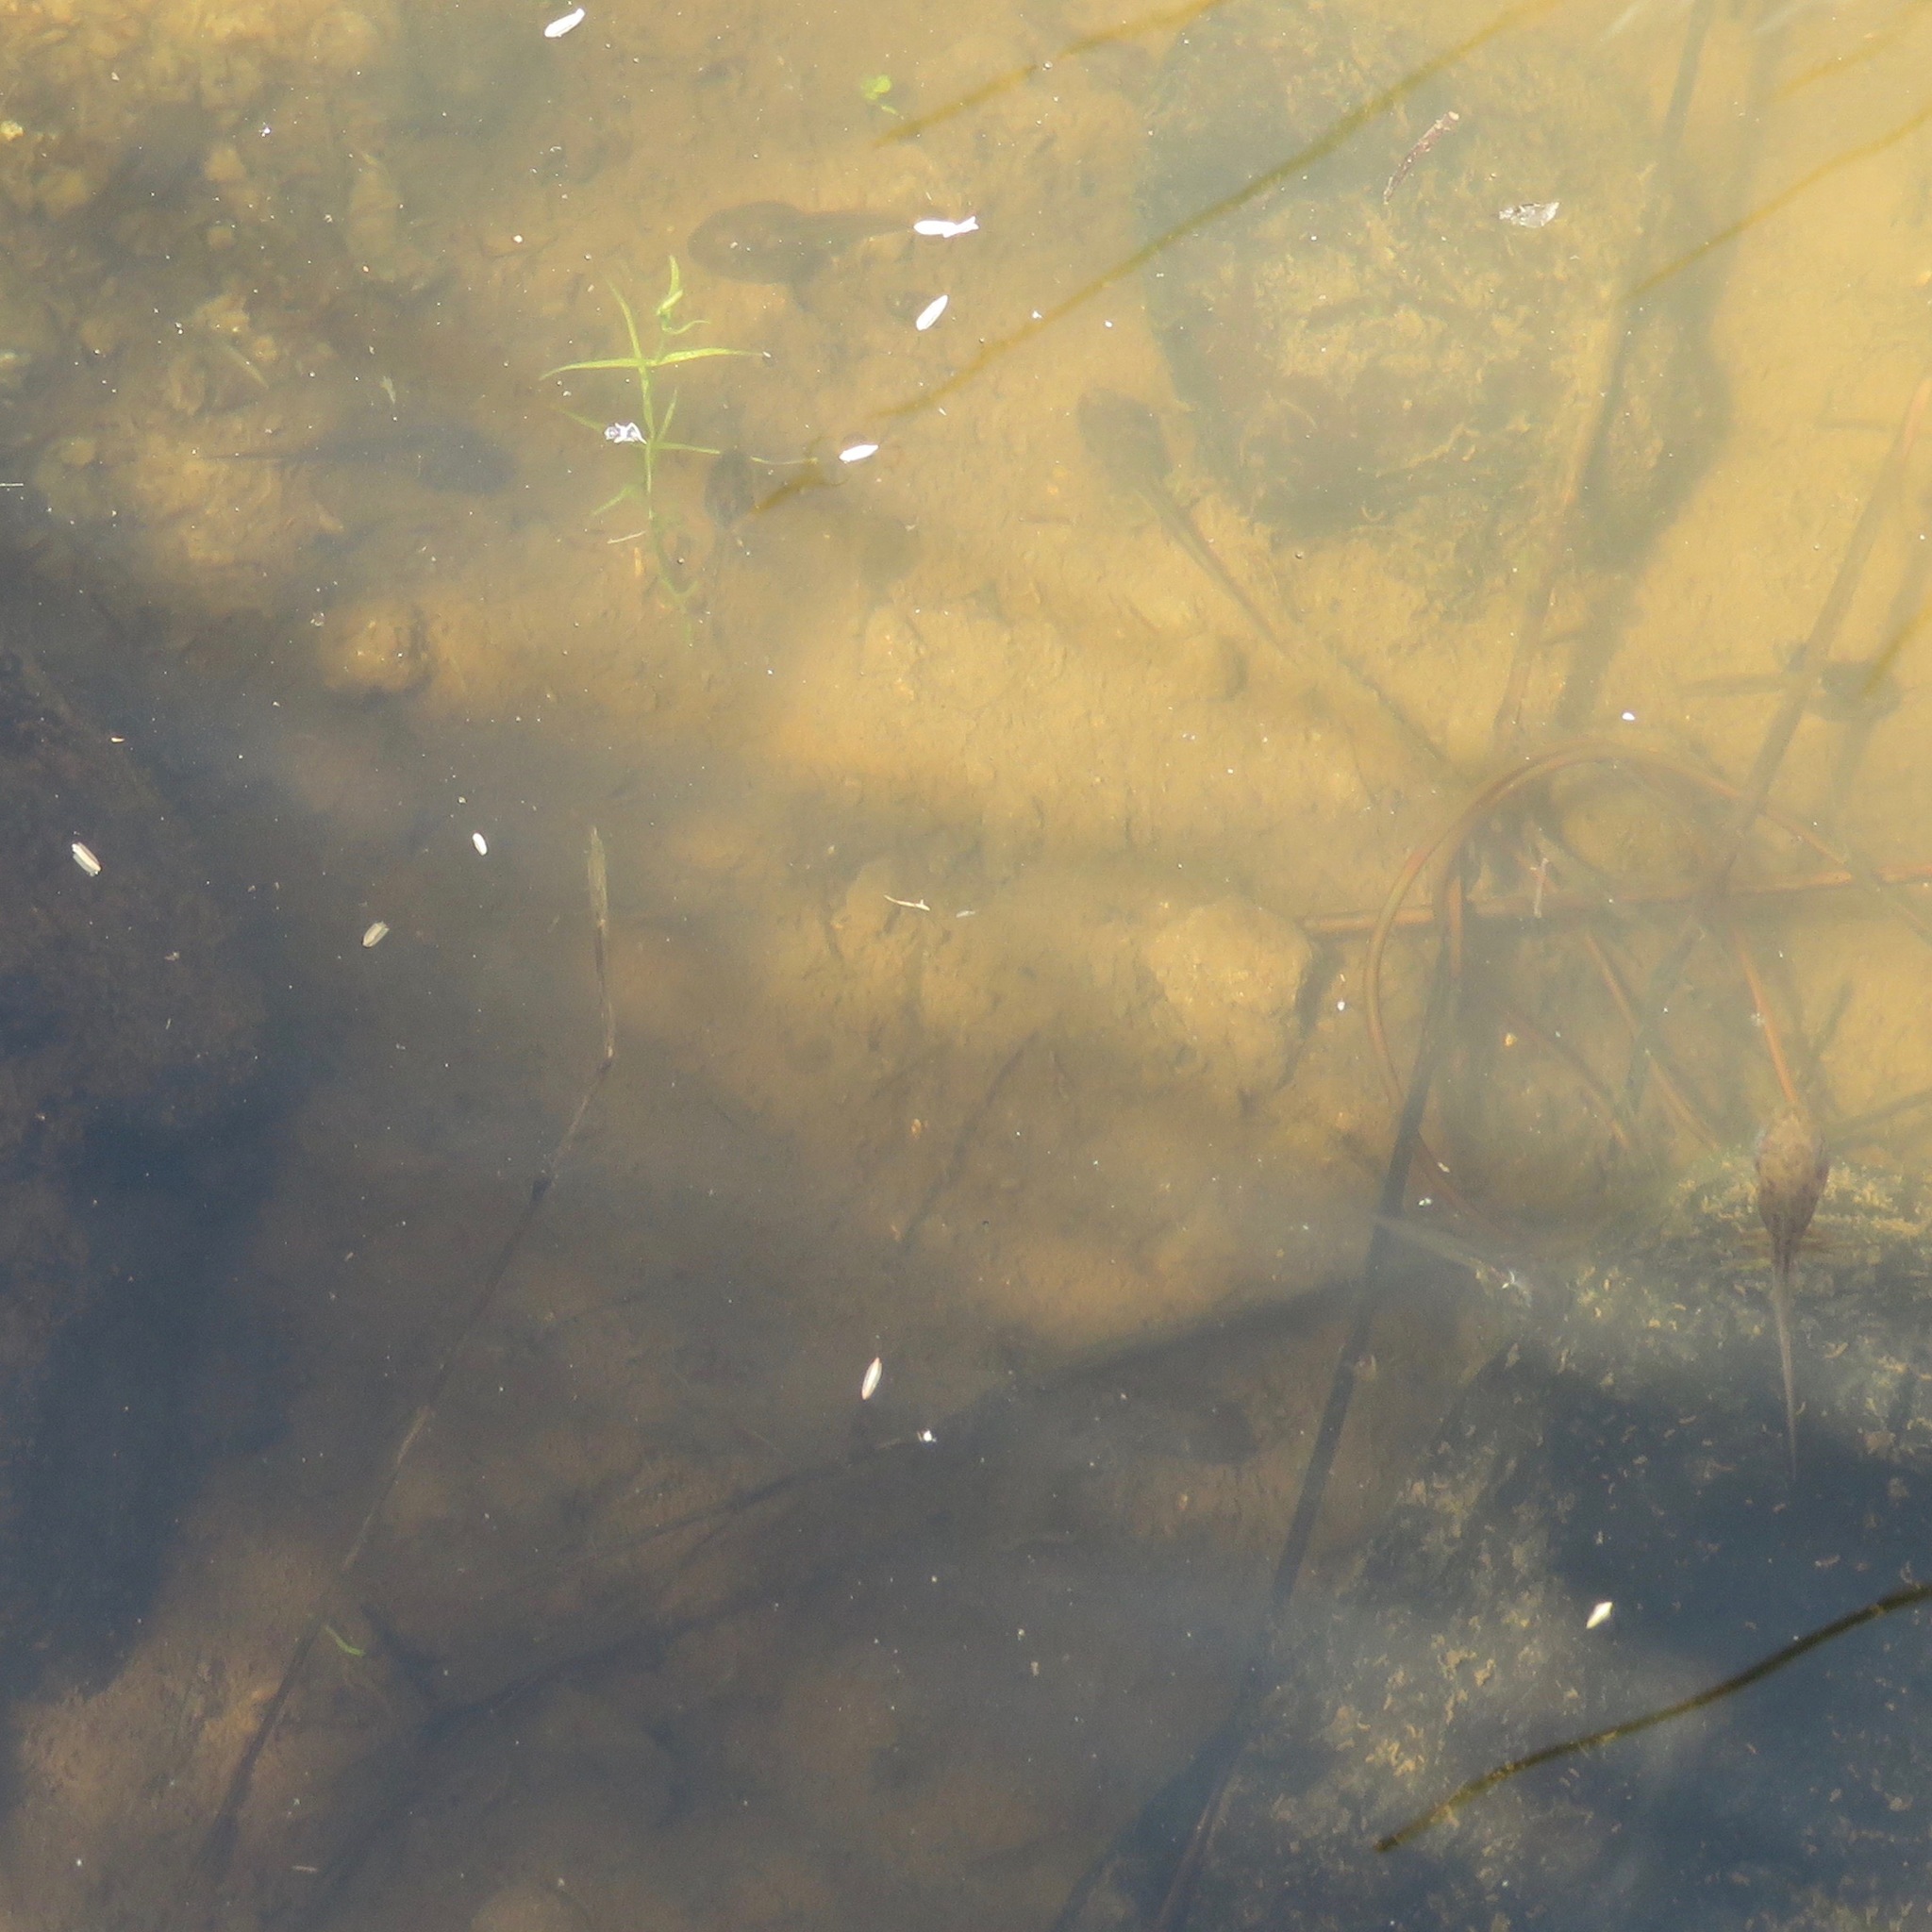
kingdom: Animalia
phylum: Chordata
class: Amphibia
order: Anura
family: Ranidae
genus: Lithobates
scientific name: Lithobates catesbeianus
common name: American bullfrog
